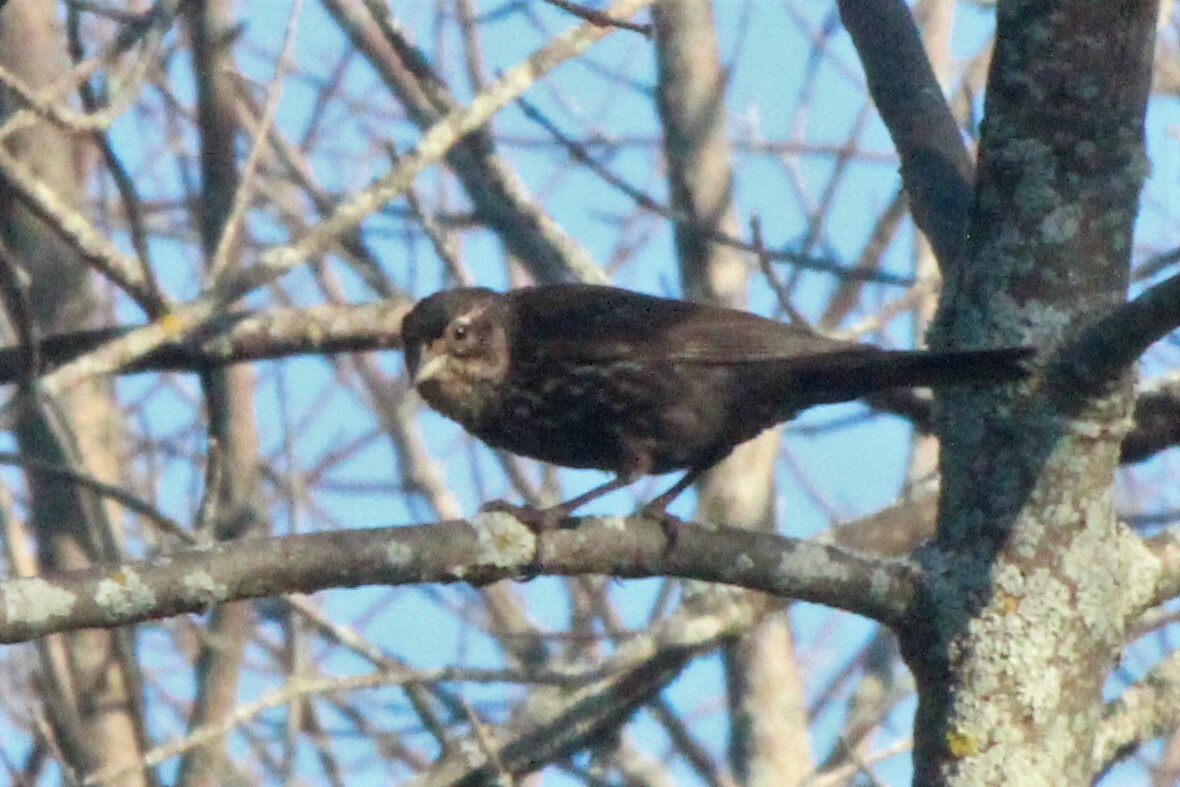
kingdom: Animalia
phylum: Chordata
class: Aves
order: Passeriformes
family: Icteridae
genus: Agelaius
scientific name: Agelaius phoeniceus
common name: Red-winged blackbird
